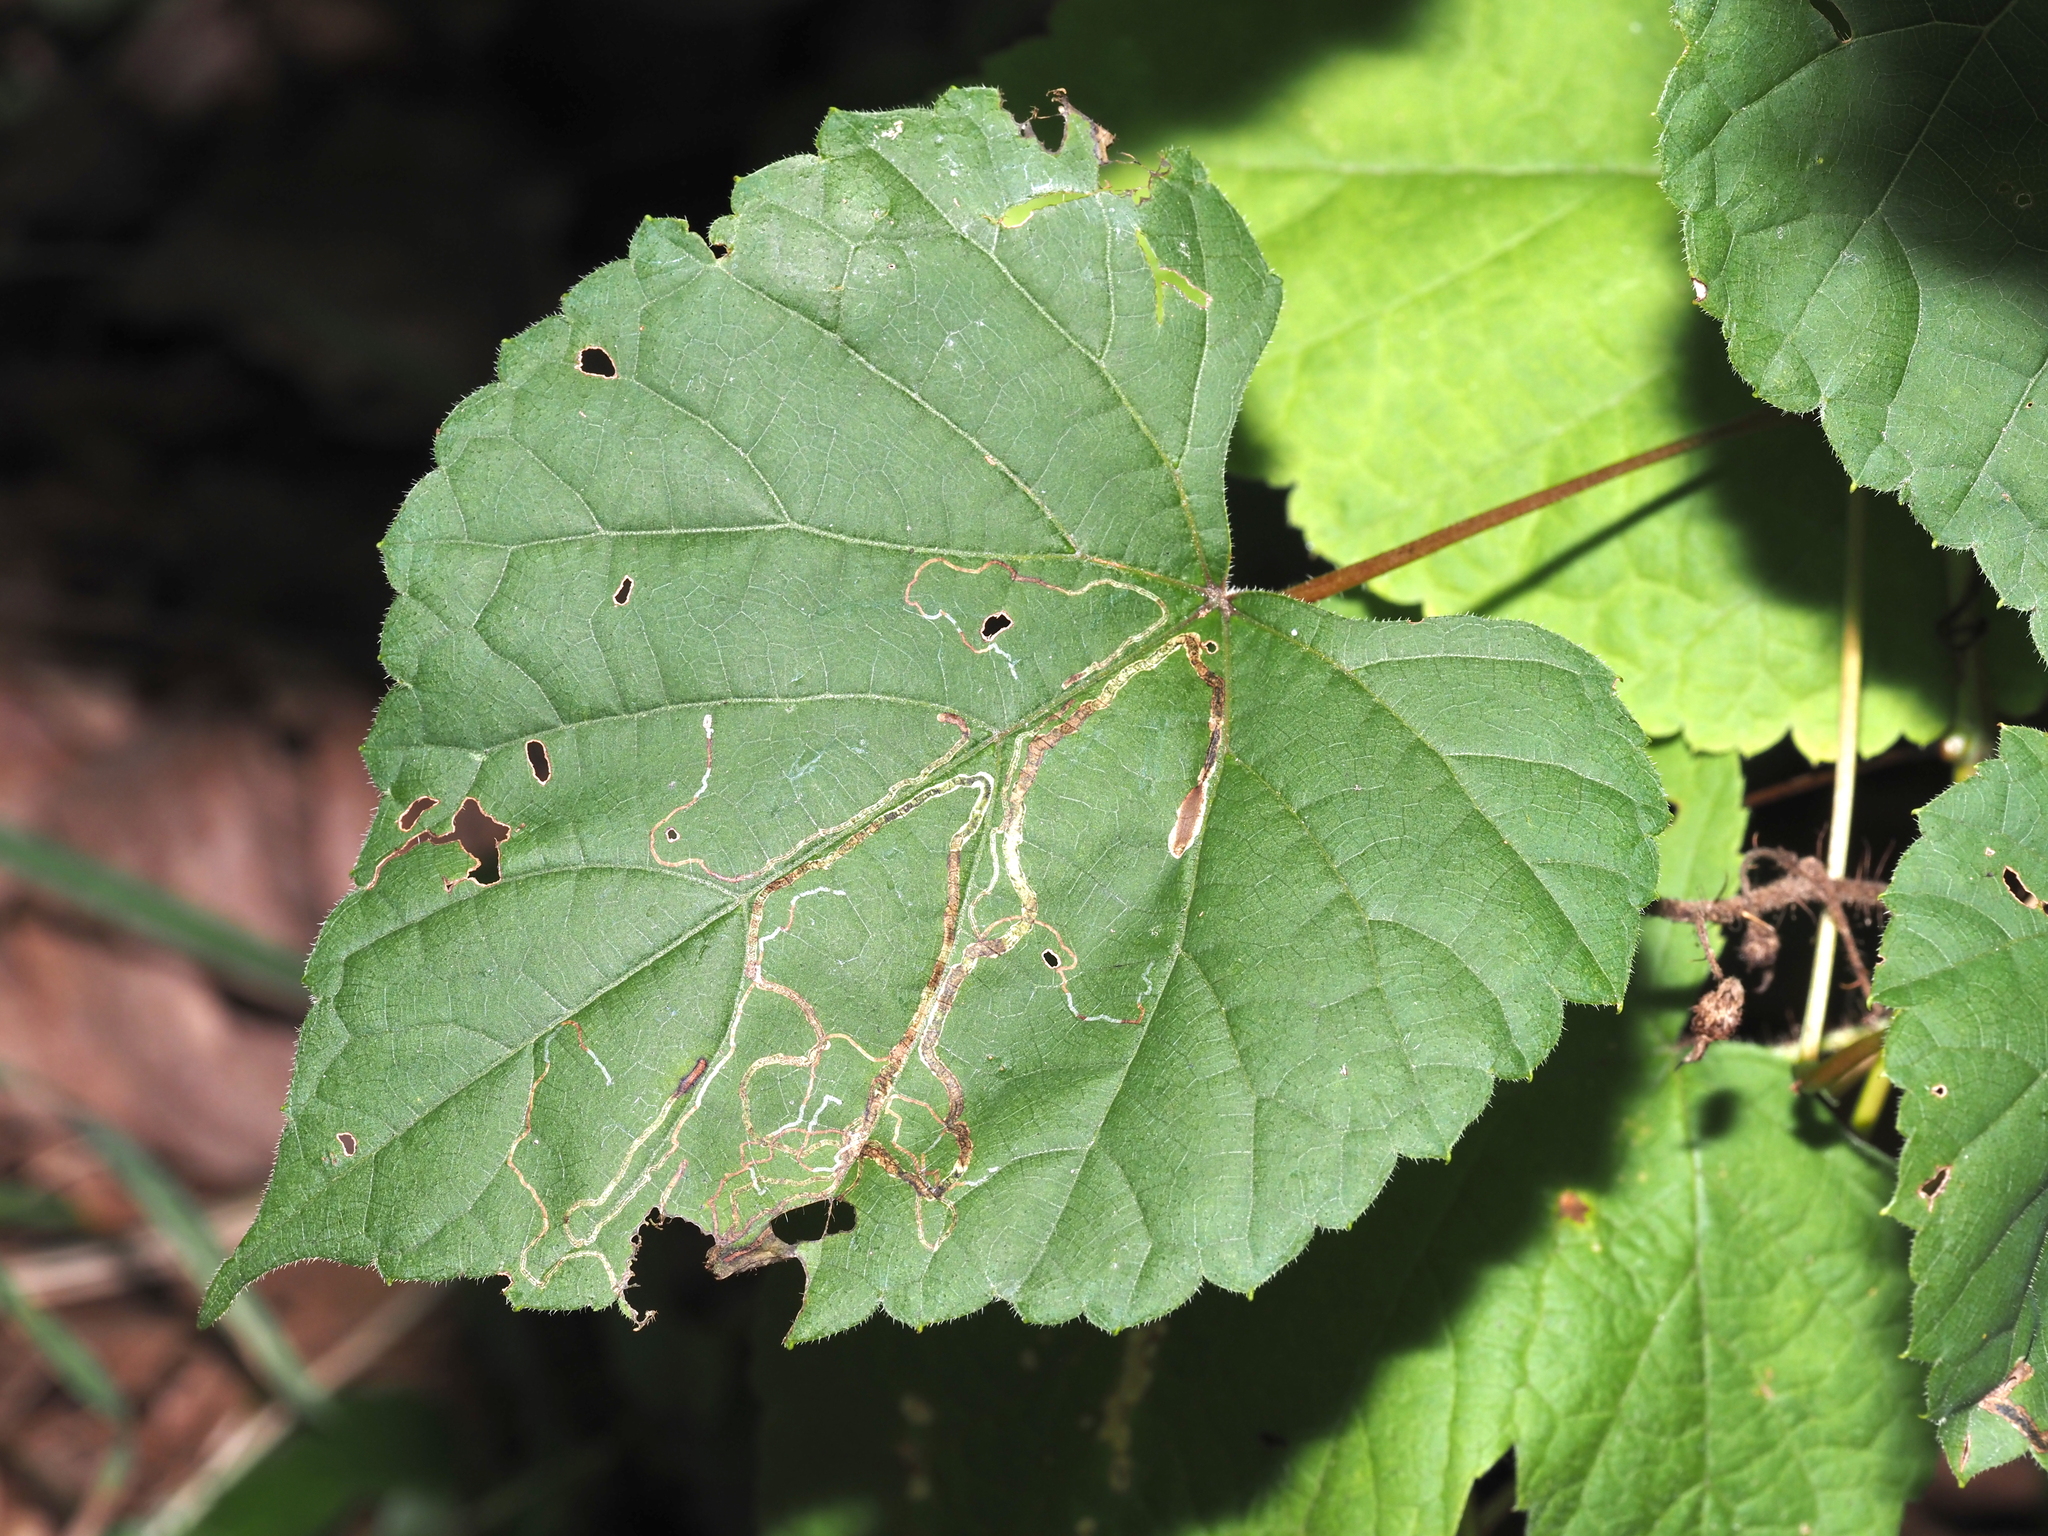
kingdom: Animalia
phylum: Arthropoda
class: Insecta
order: Lepidoptera
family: Gracillariidae
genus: Phyllocnistis
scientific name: Phyllocnistis vitifoliella
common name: Grape leaf-miner moth
